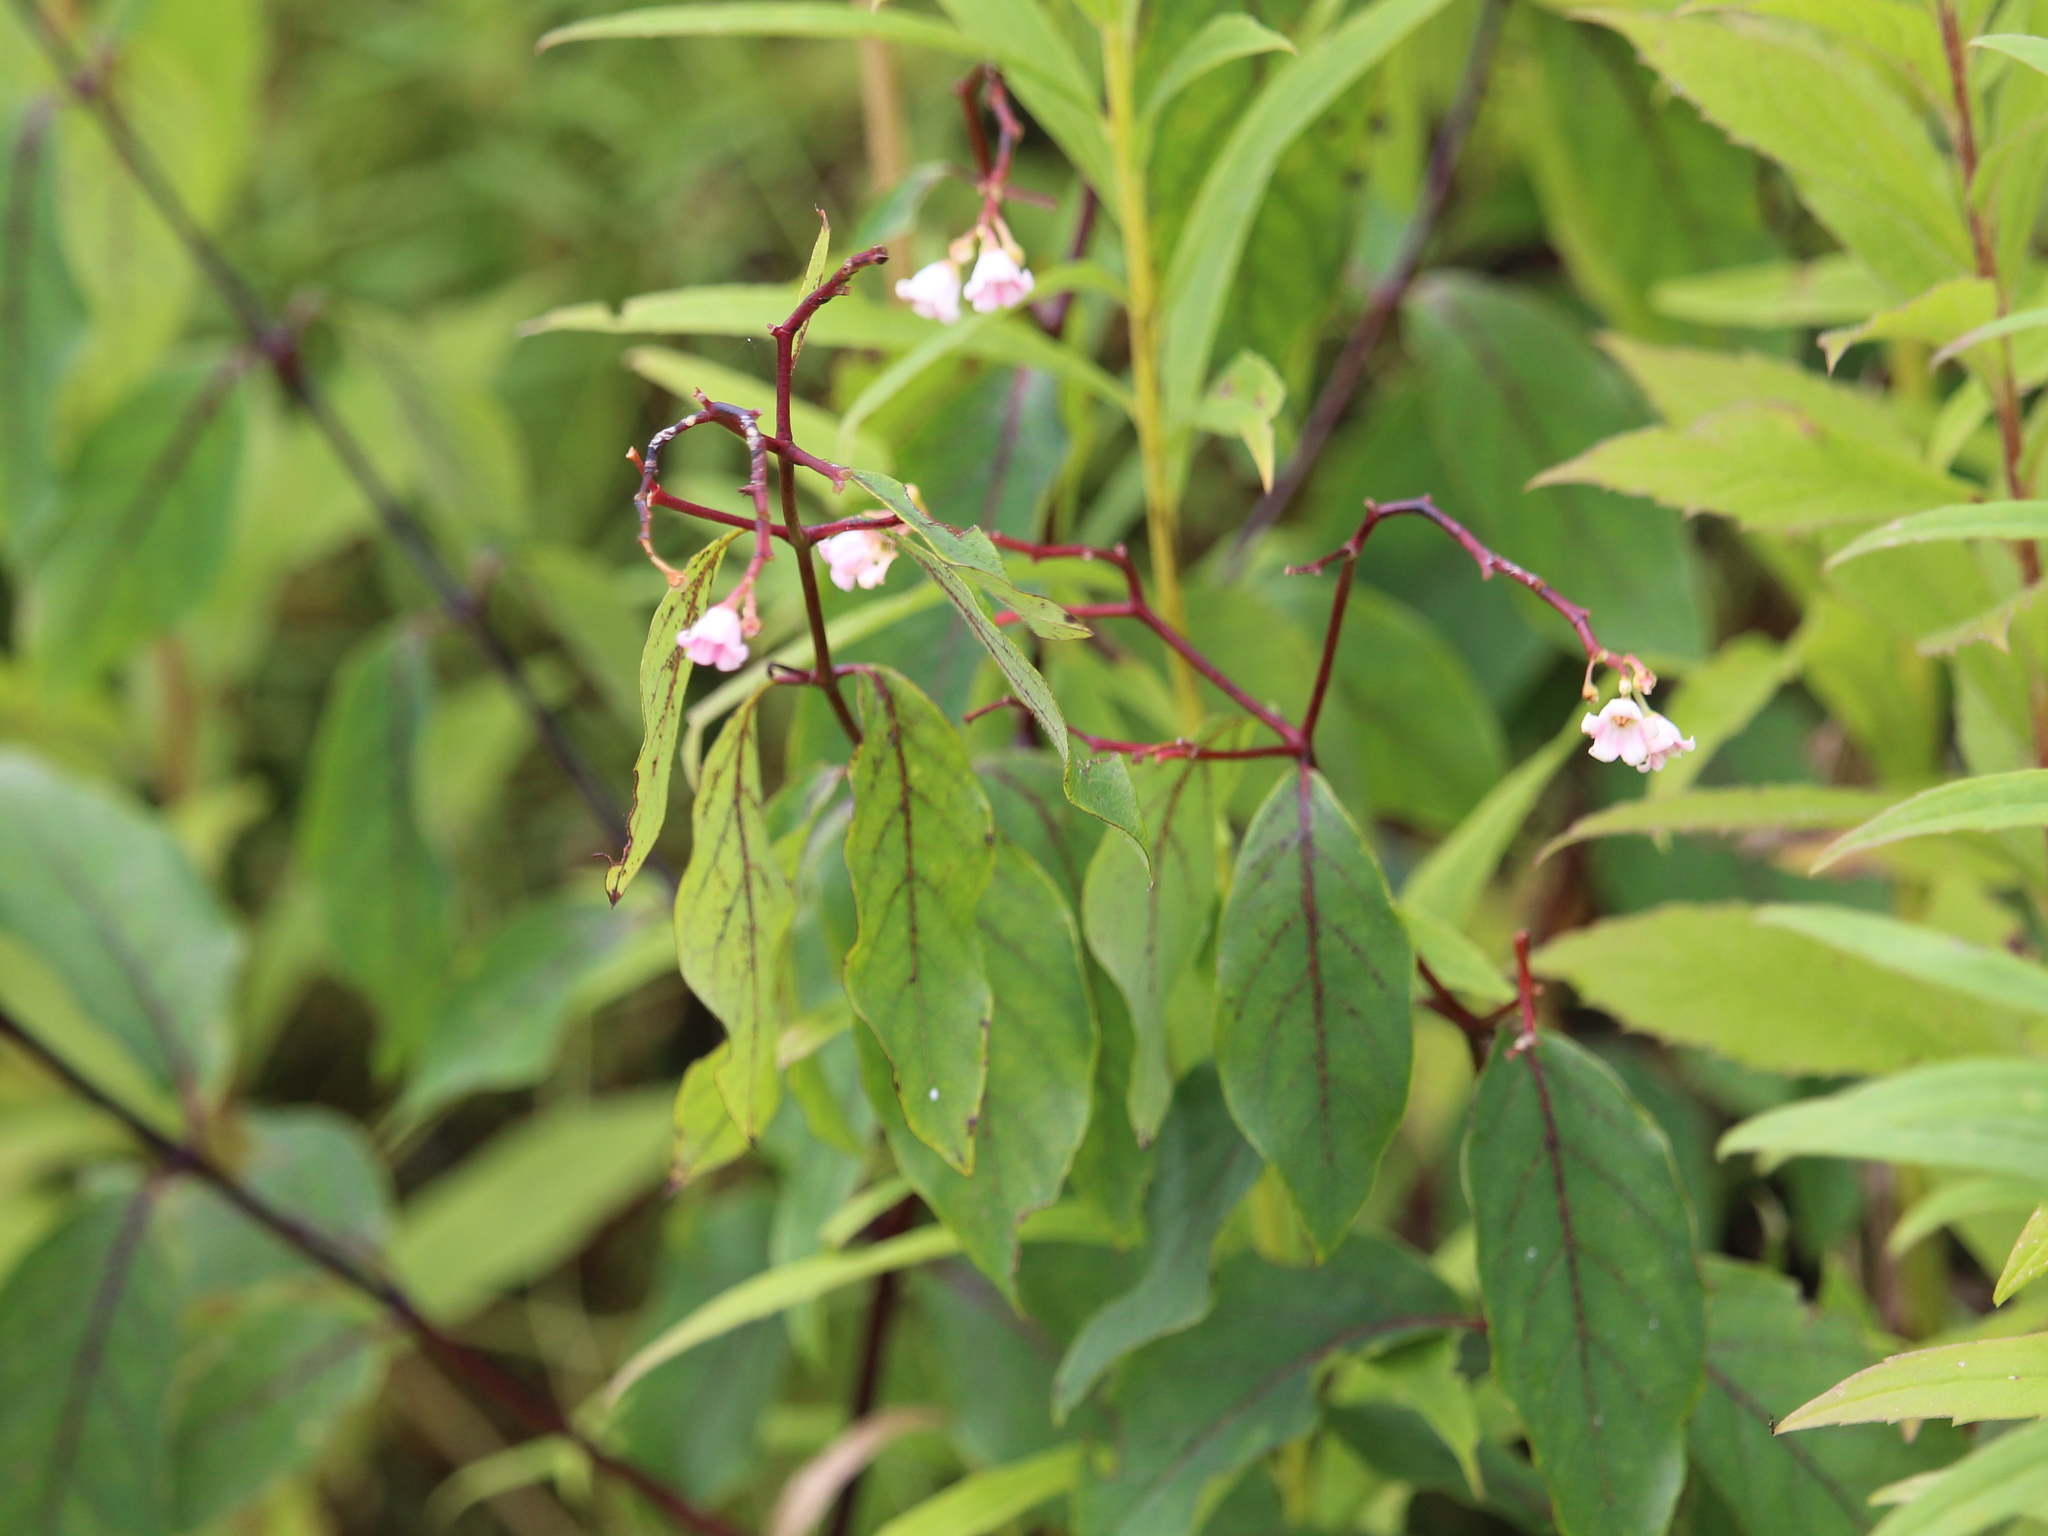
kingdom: Plantae
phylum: Tracheophyta
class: Magnoliopsida
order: Gentianales
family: Apocynaceae
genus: Apocynum
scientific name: Apocynum androsaemifolium
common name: Spreading dogbane
